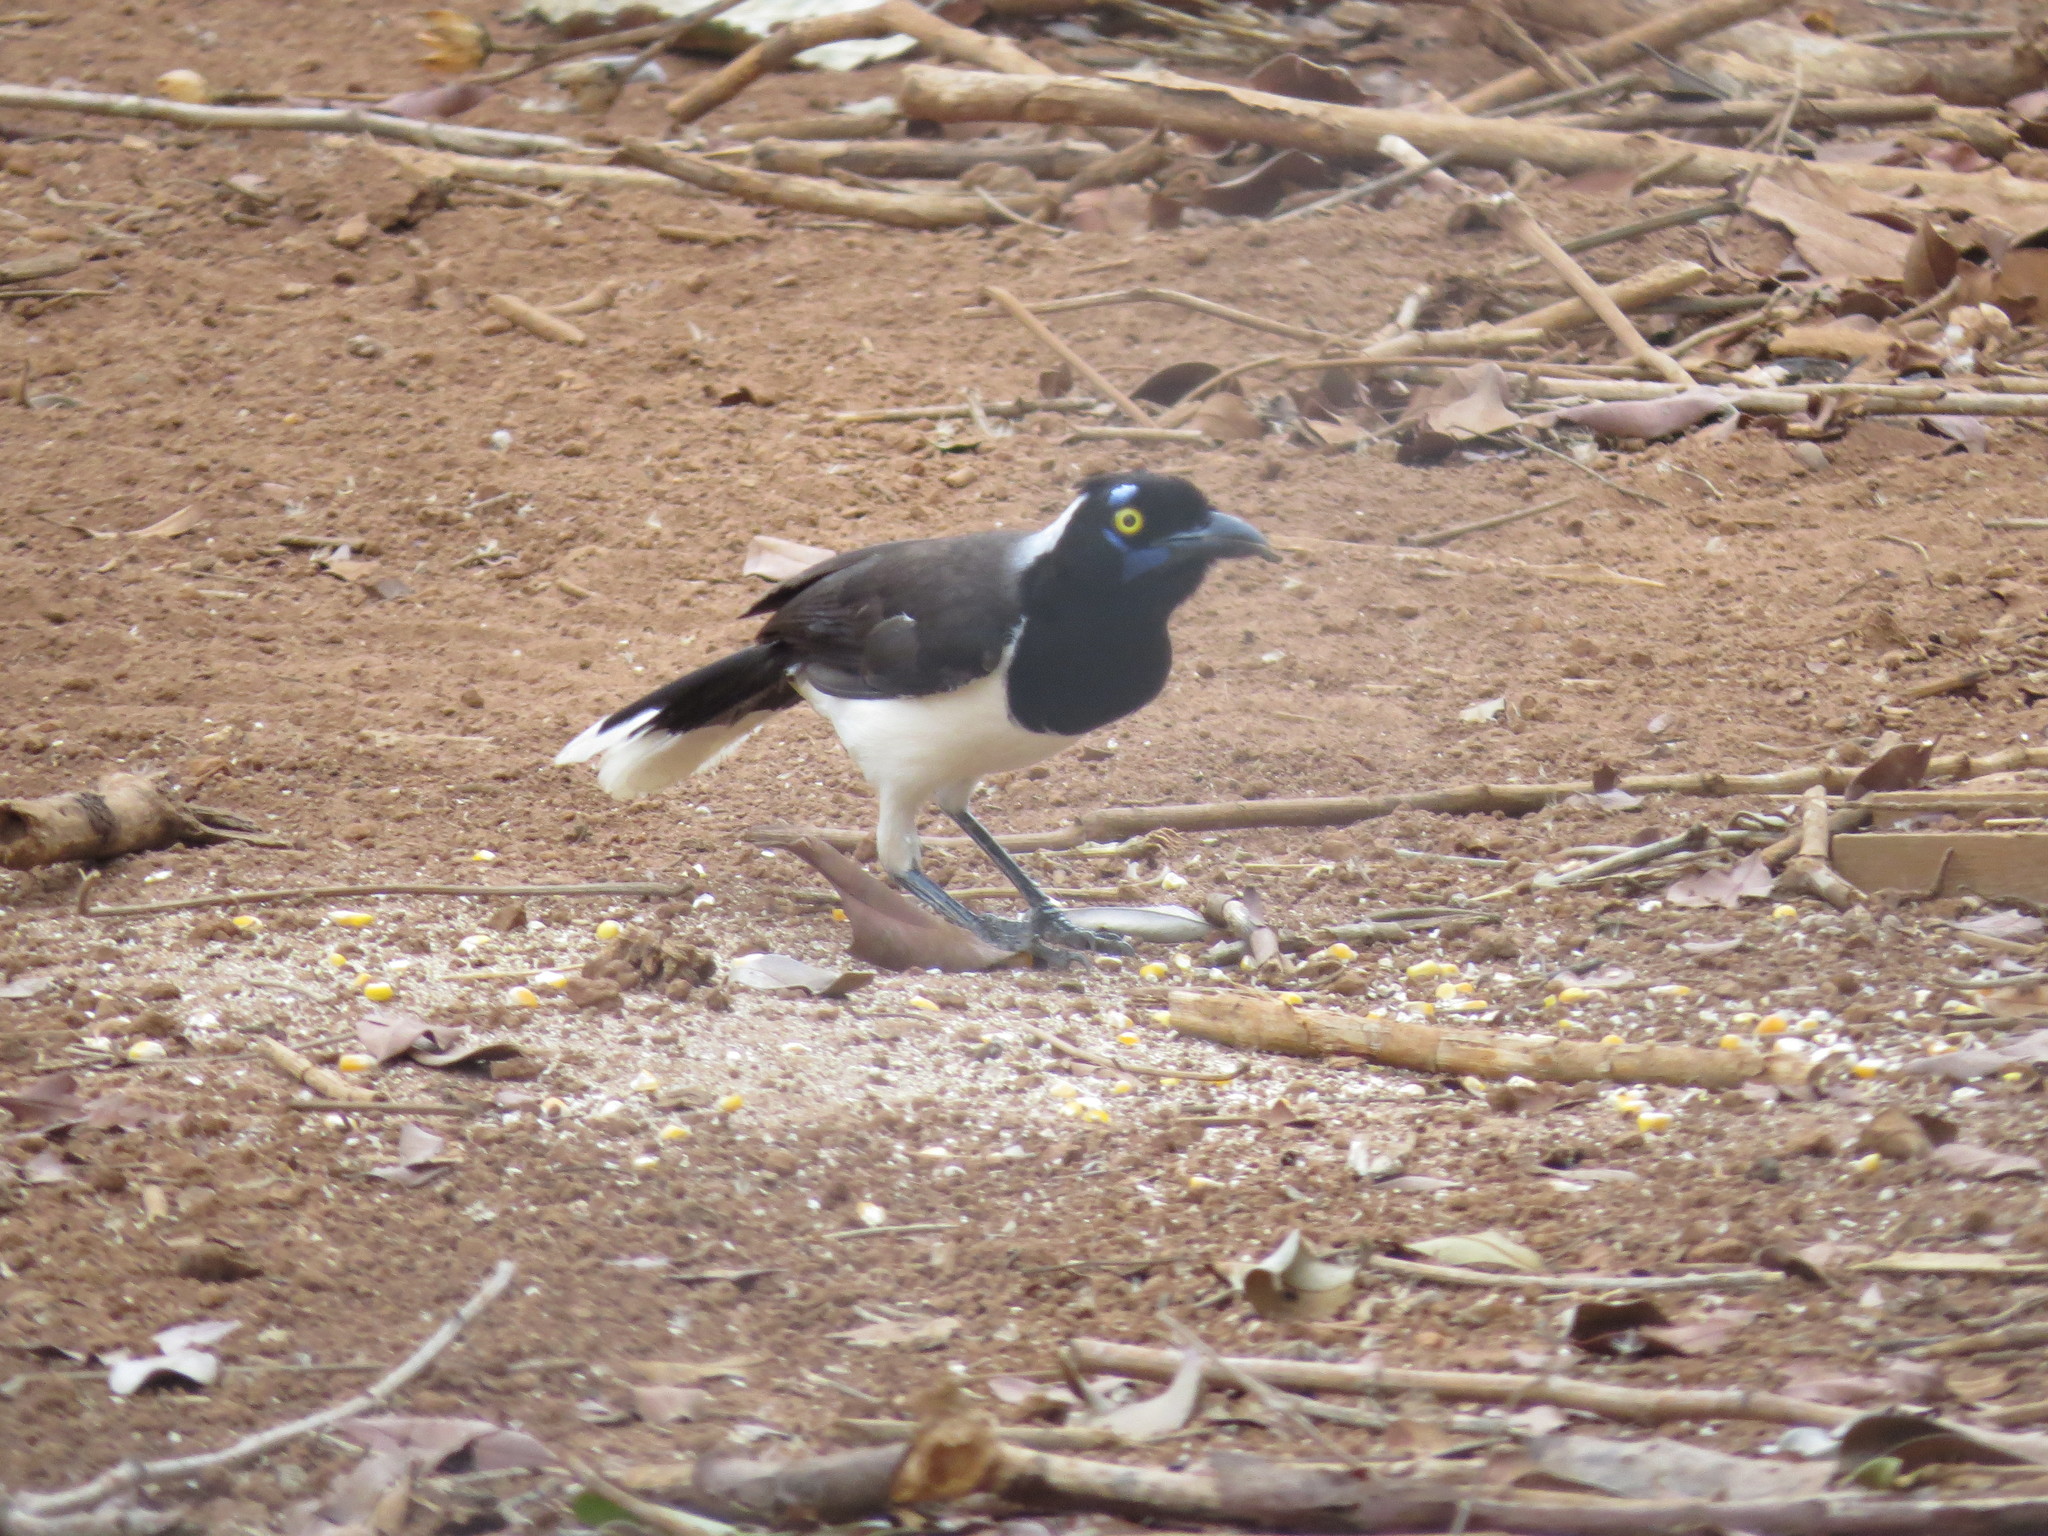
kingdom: Animalia
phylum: Chordata
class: Aves
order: Passeriformes
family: Corvidae
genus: Cyanocorax
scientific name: Cyanocorax cyanopogon
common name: White-naped jay
